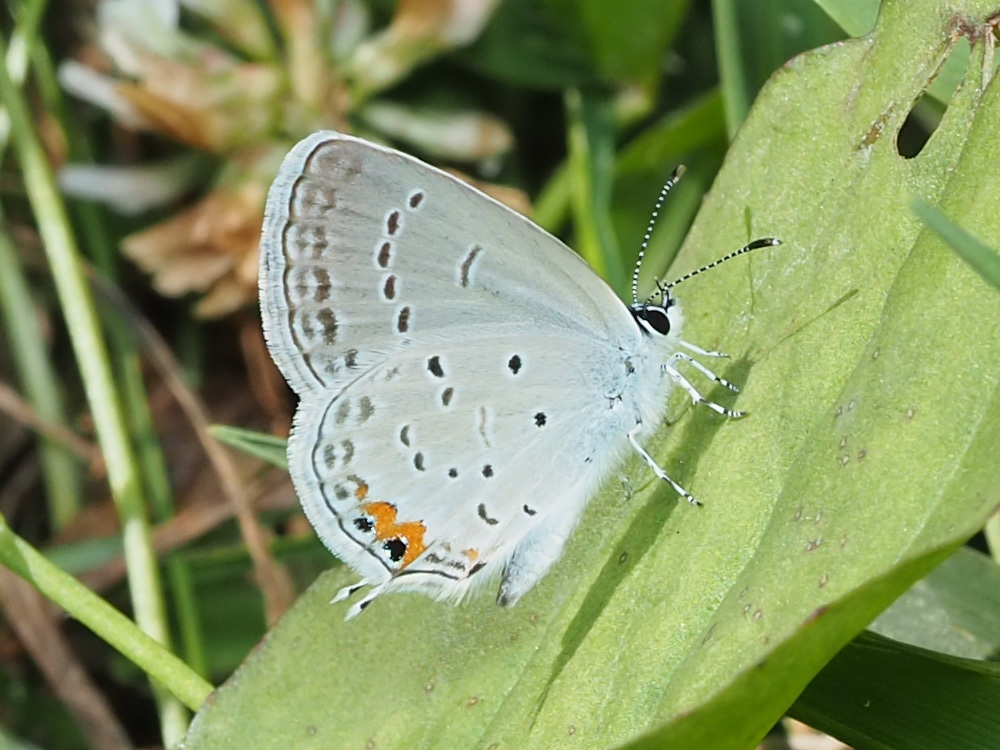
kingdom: Animalia
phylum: Arthropoda
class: Insecta
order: Lepidoptera
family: Lycaenidae
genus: Elkalyce
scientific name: Elkalyce comyntas
